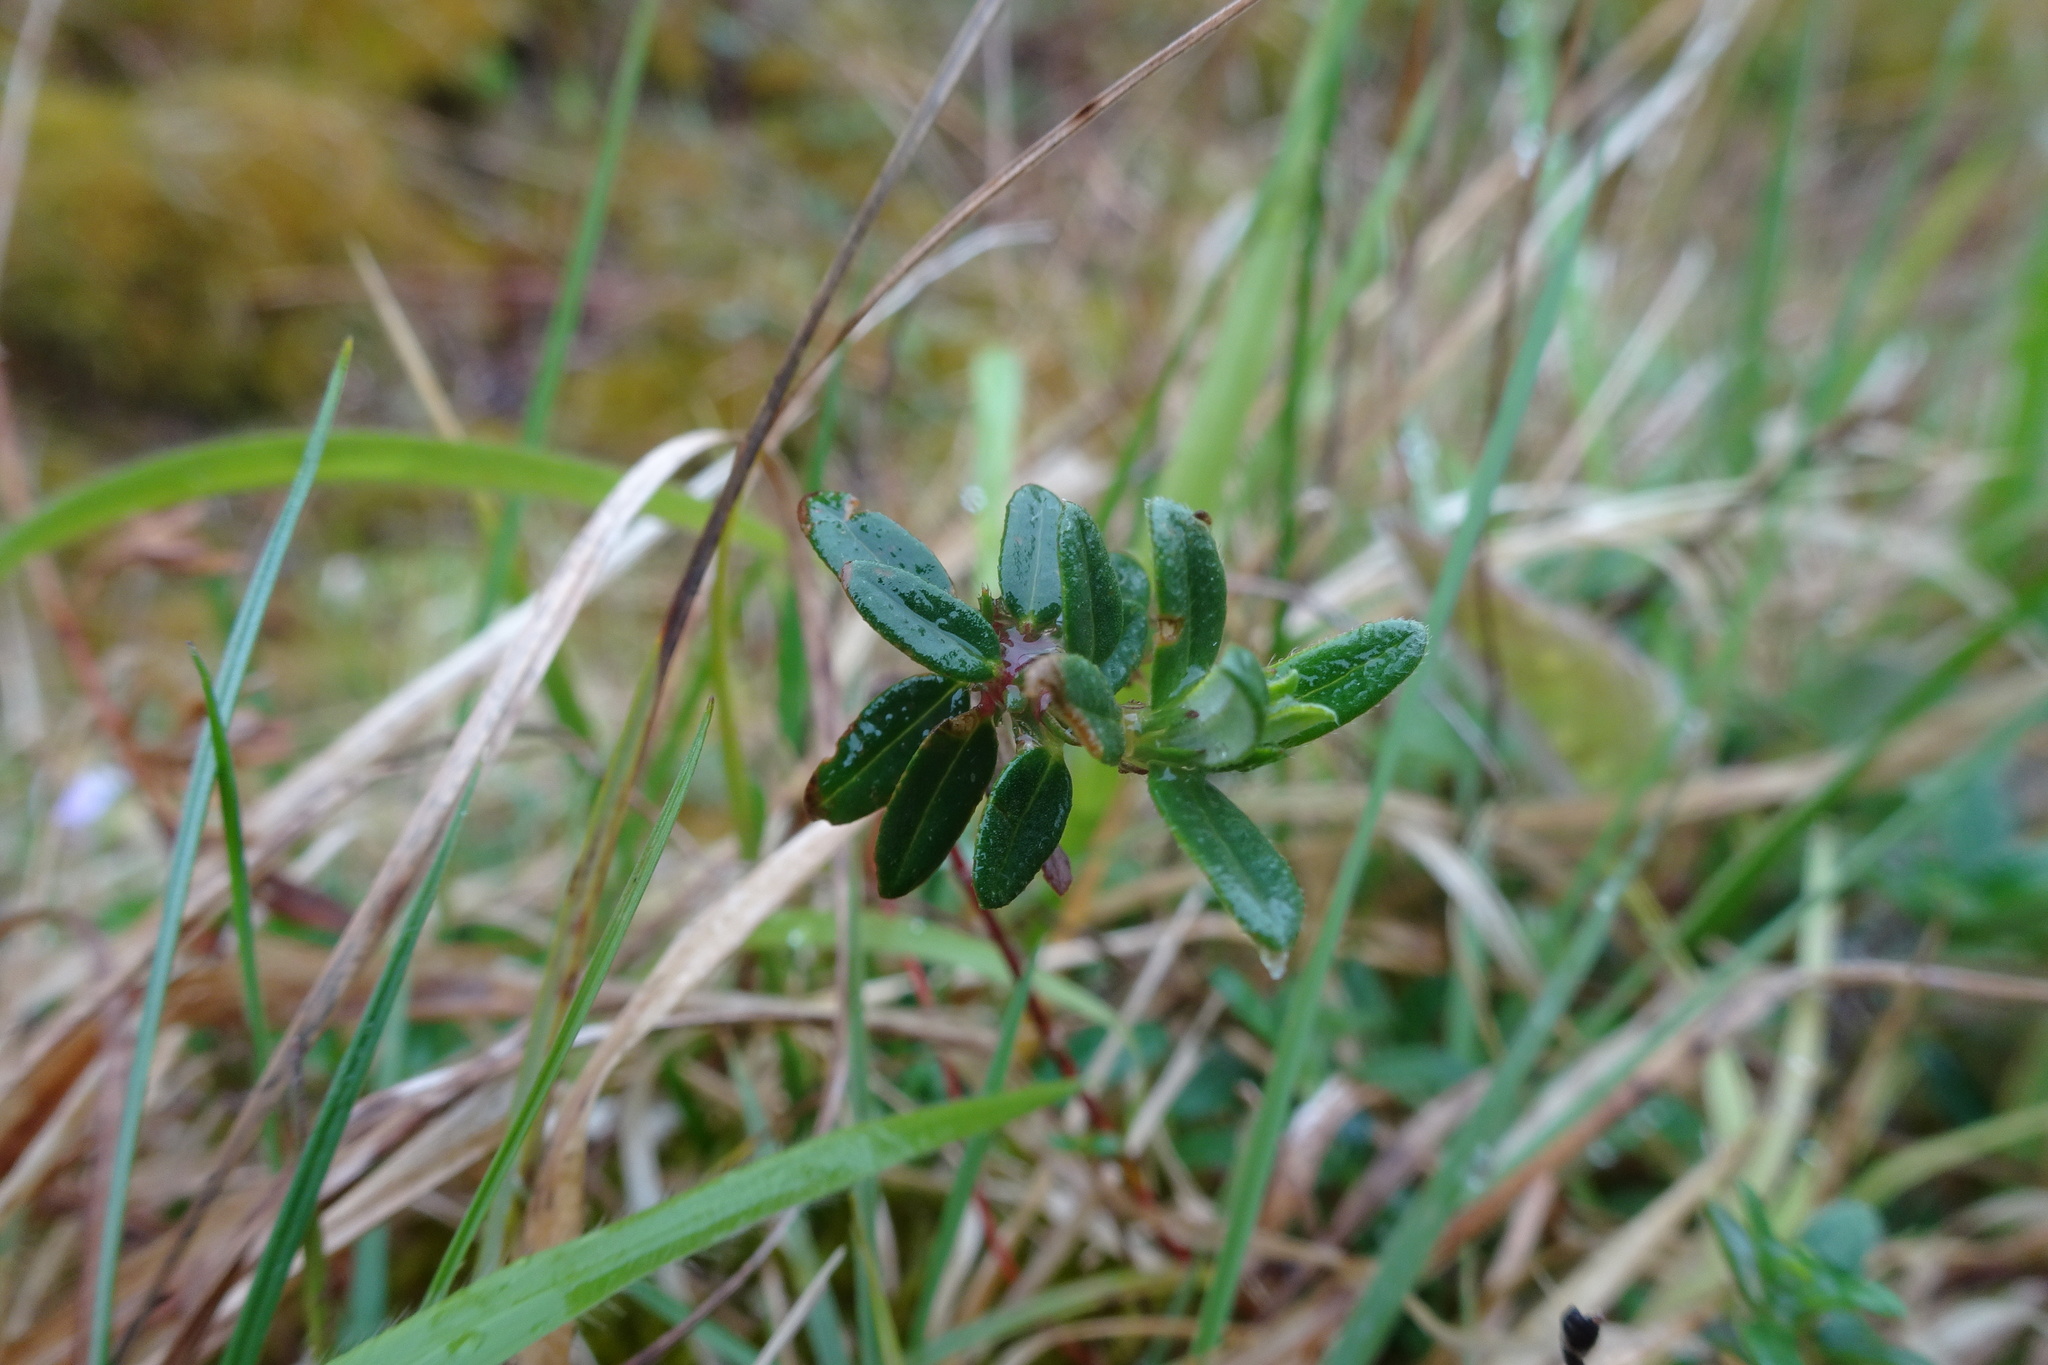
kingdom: Plantae
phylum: Tracheophyta
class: Magnoliopsida
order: Malvales
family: Cistaceae
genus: Helianthemum
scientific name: Helianthemum nummularium
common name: Common rock-rose
